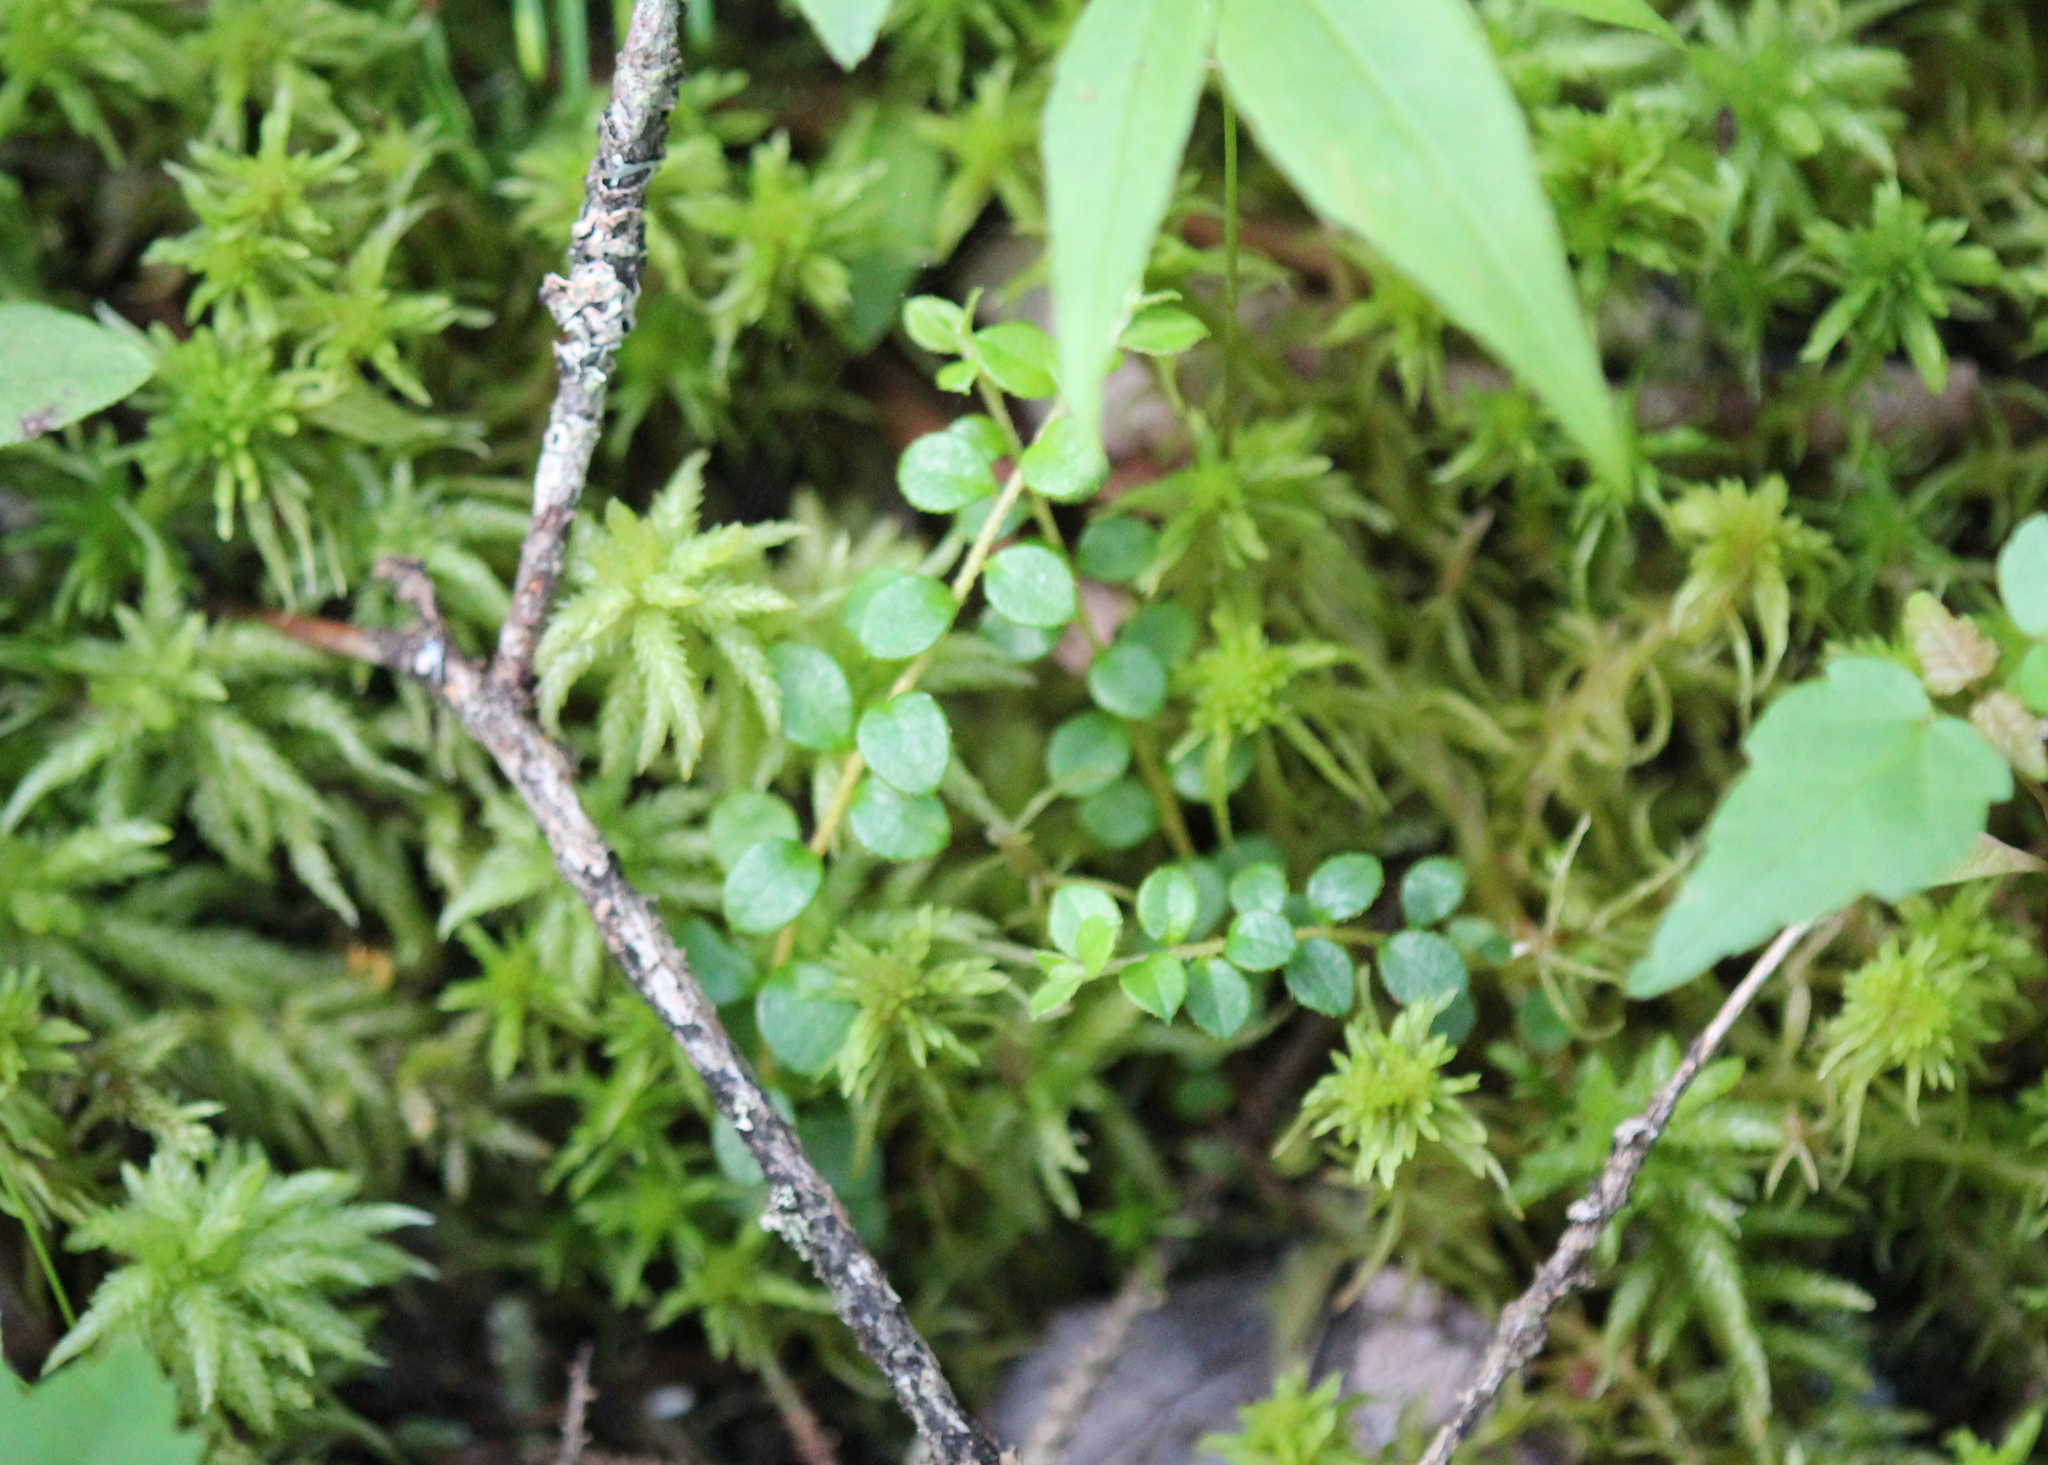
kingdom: Plantae
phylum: Tracheophyta
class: Magnoliopsida
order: Ericales
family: Ericaceae
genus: Gaultheria
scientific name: Gaultheria hispidula
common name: Cancer wintergreen
